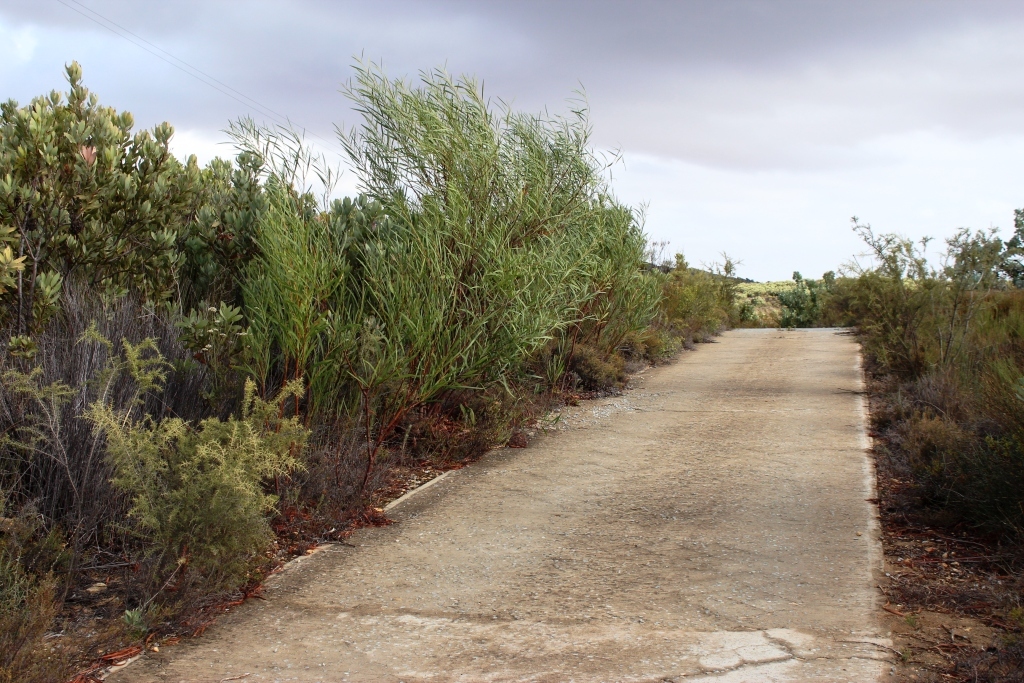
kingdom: Plantae
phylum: Tracheophyta
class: Magnoliopsida
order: Fabales
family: Fabaceae
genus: Acacia
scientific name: Acacia saligna
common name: Orange wattle
